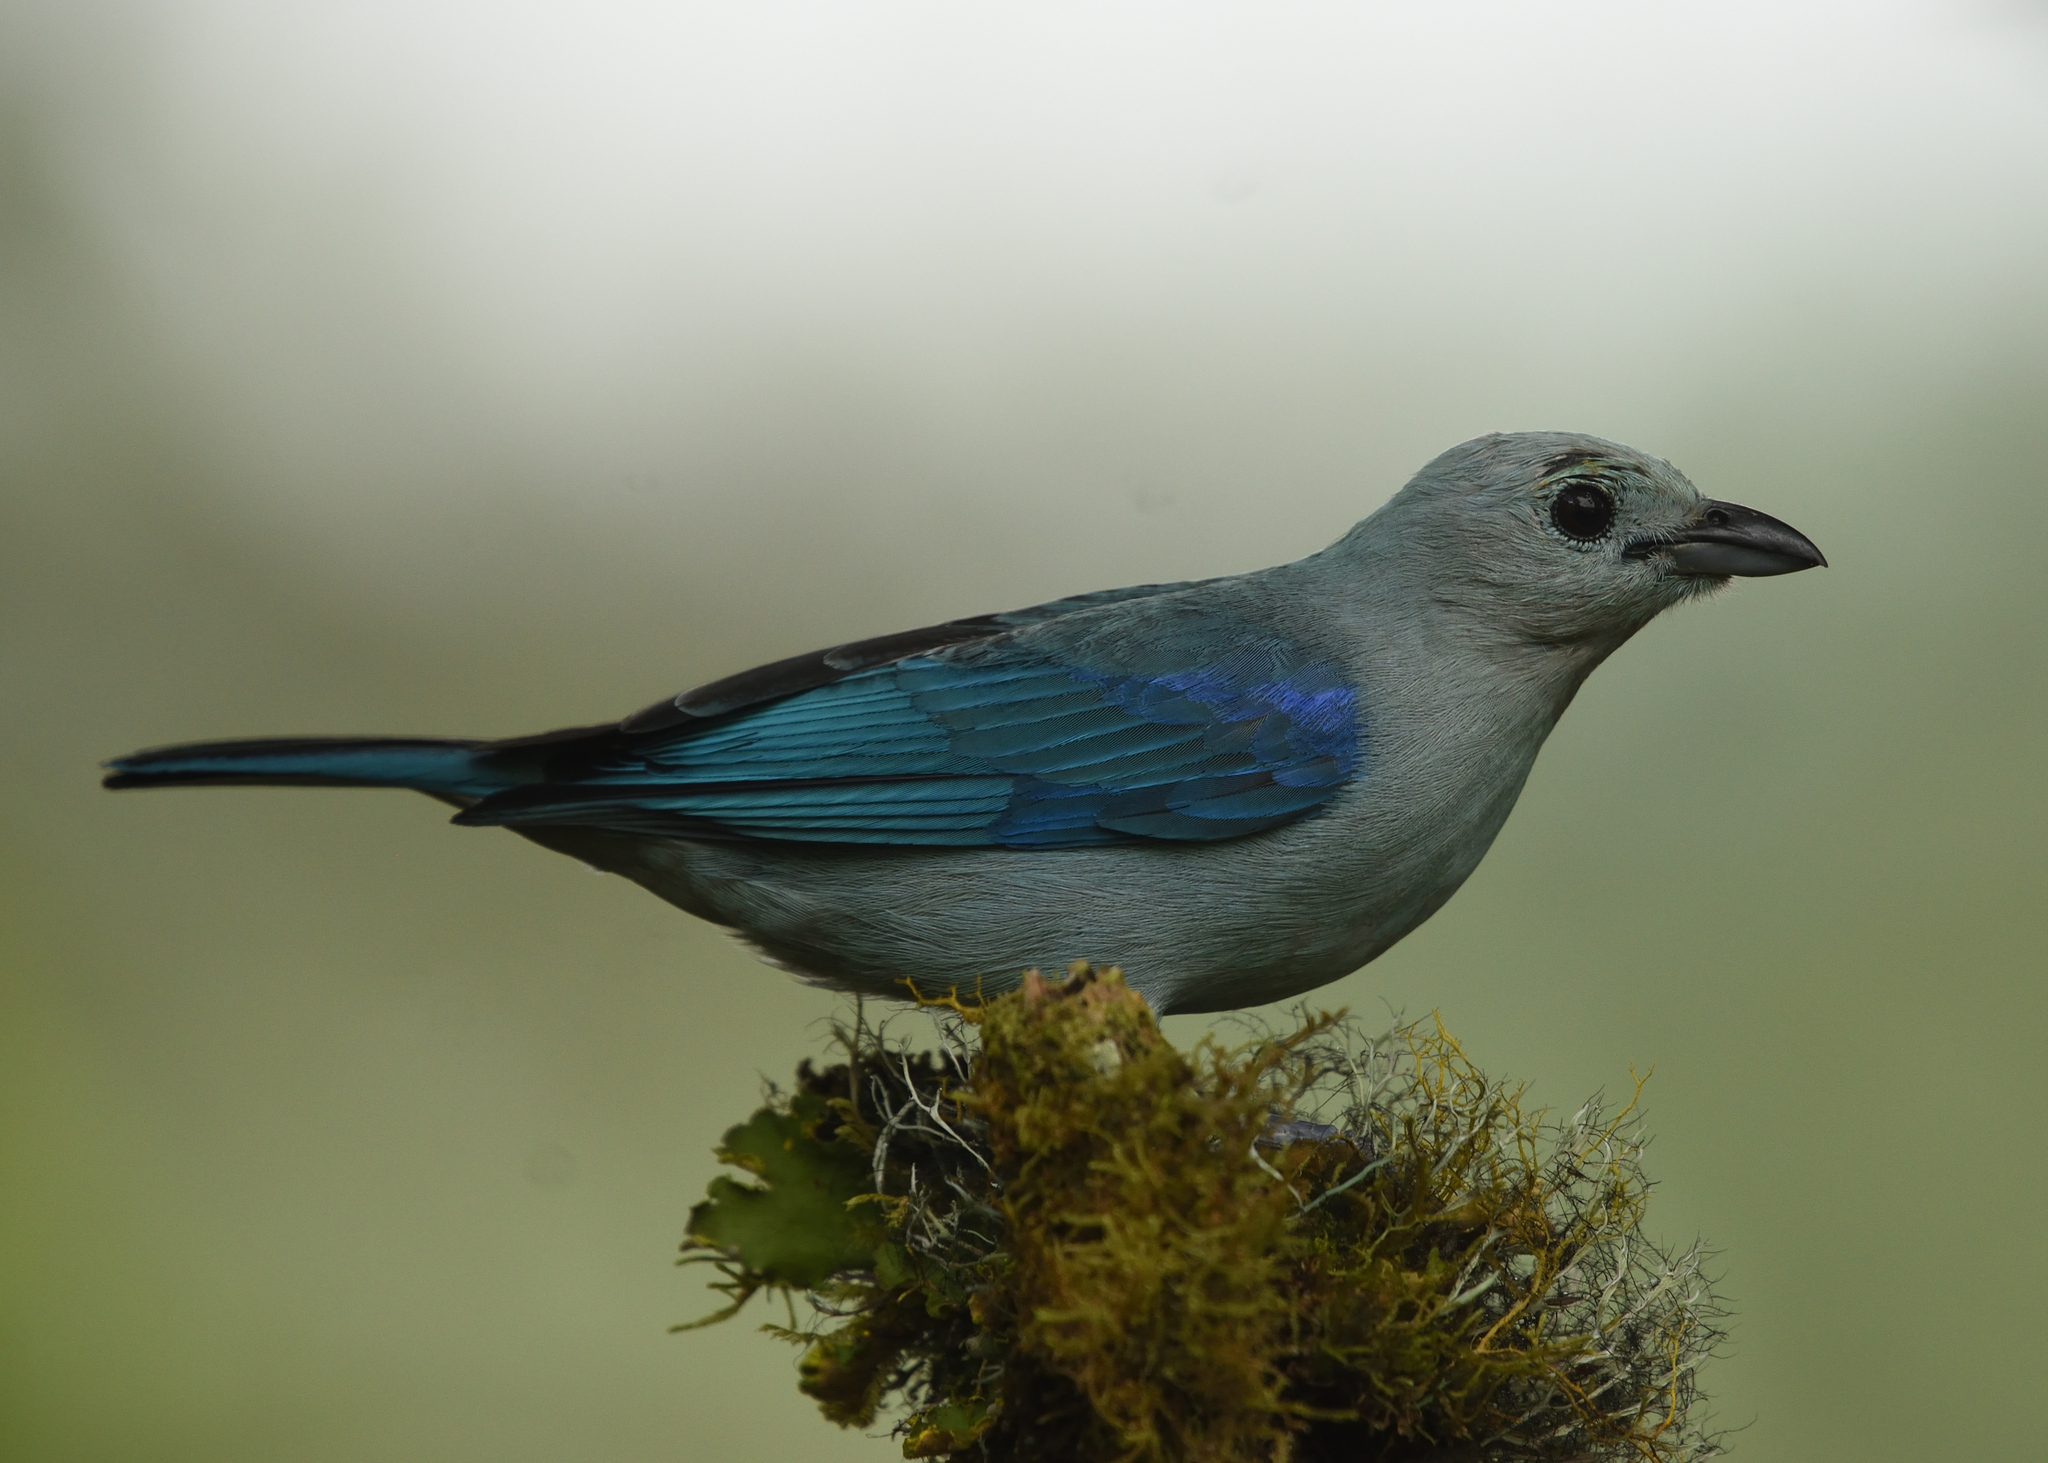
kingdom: Animalia
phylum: Chordata
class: Aves
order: Passeriformes
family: Thraupidae
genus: Thraupis
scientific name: Thraupis episcopus
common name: Blue-grey tanager
